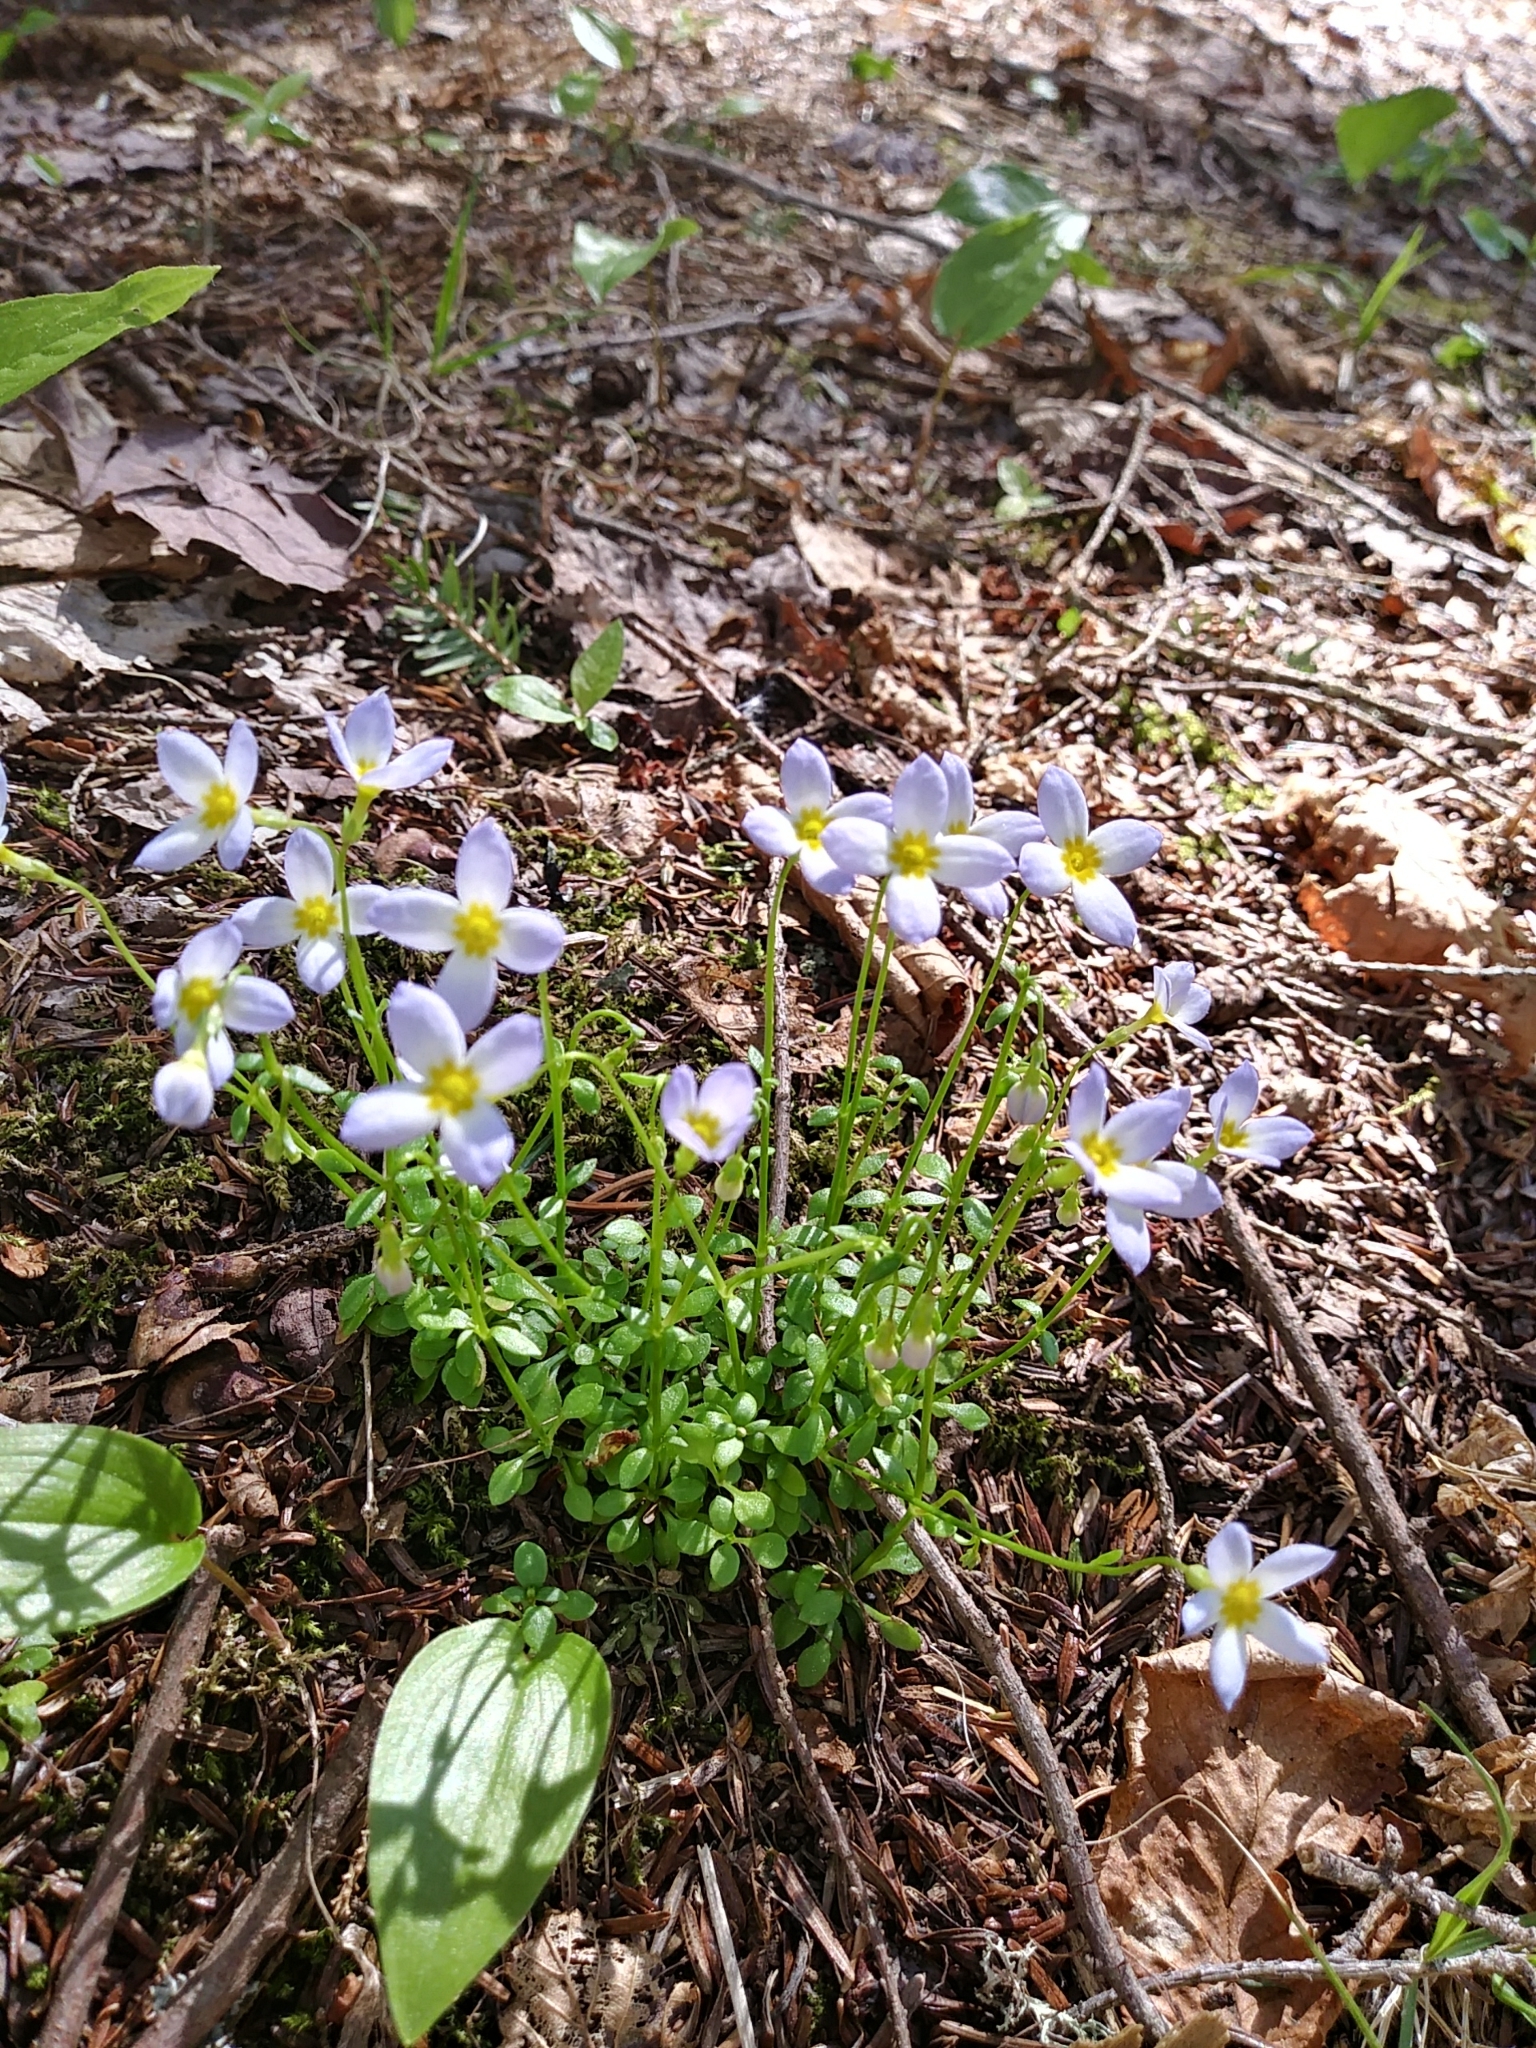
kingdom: Plantae
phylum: Tracheophyta
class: Magnoliopsida
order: Gentianales
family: Rubiaceae
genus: Houstonia
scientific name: Houstonia caerulea
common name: Bluets
